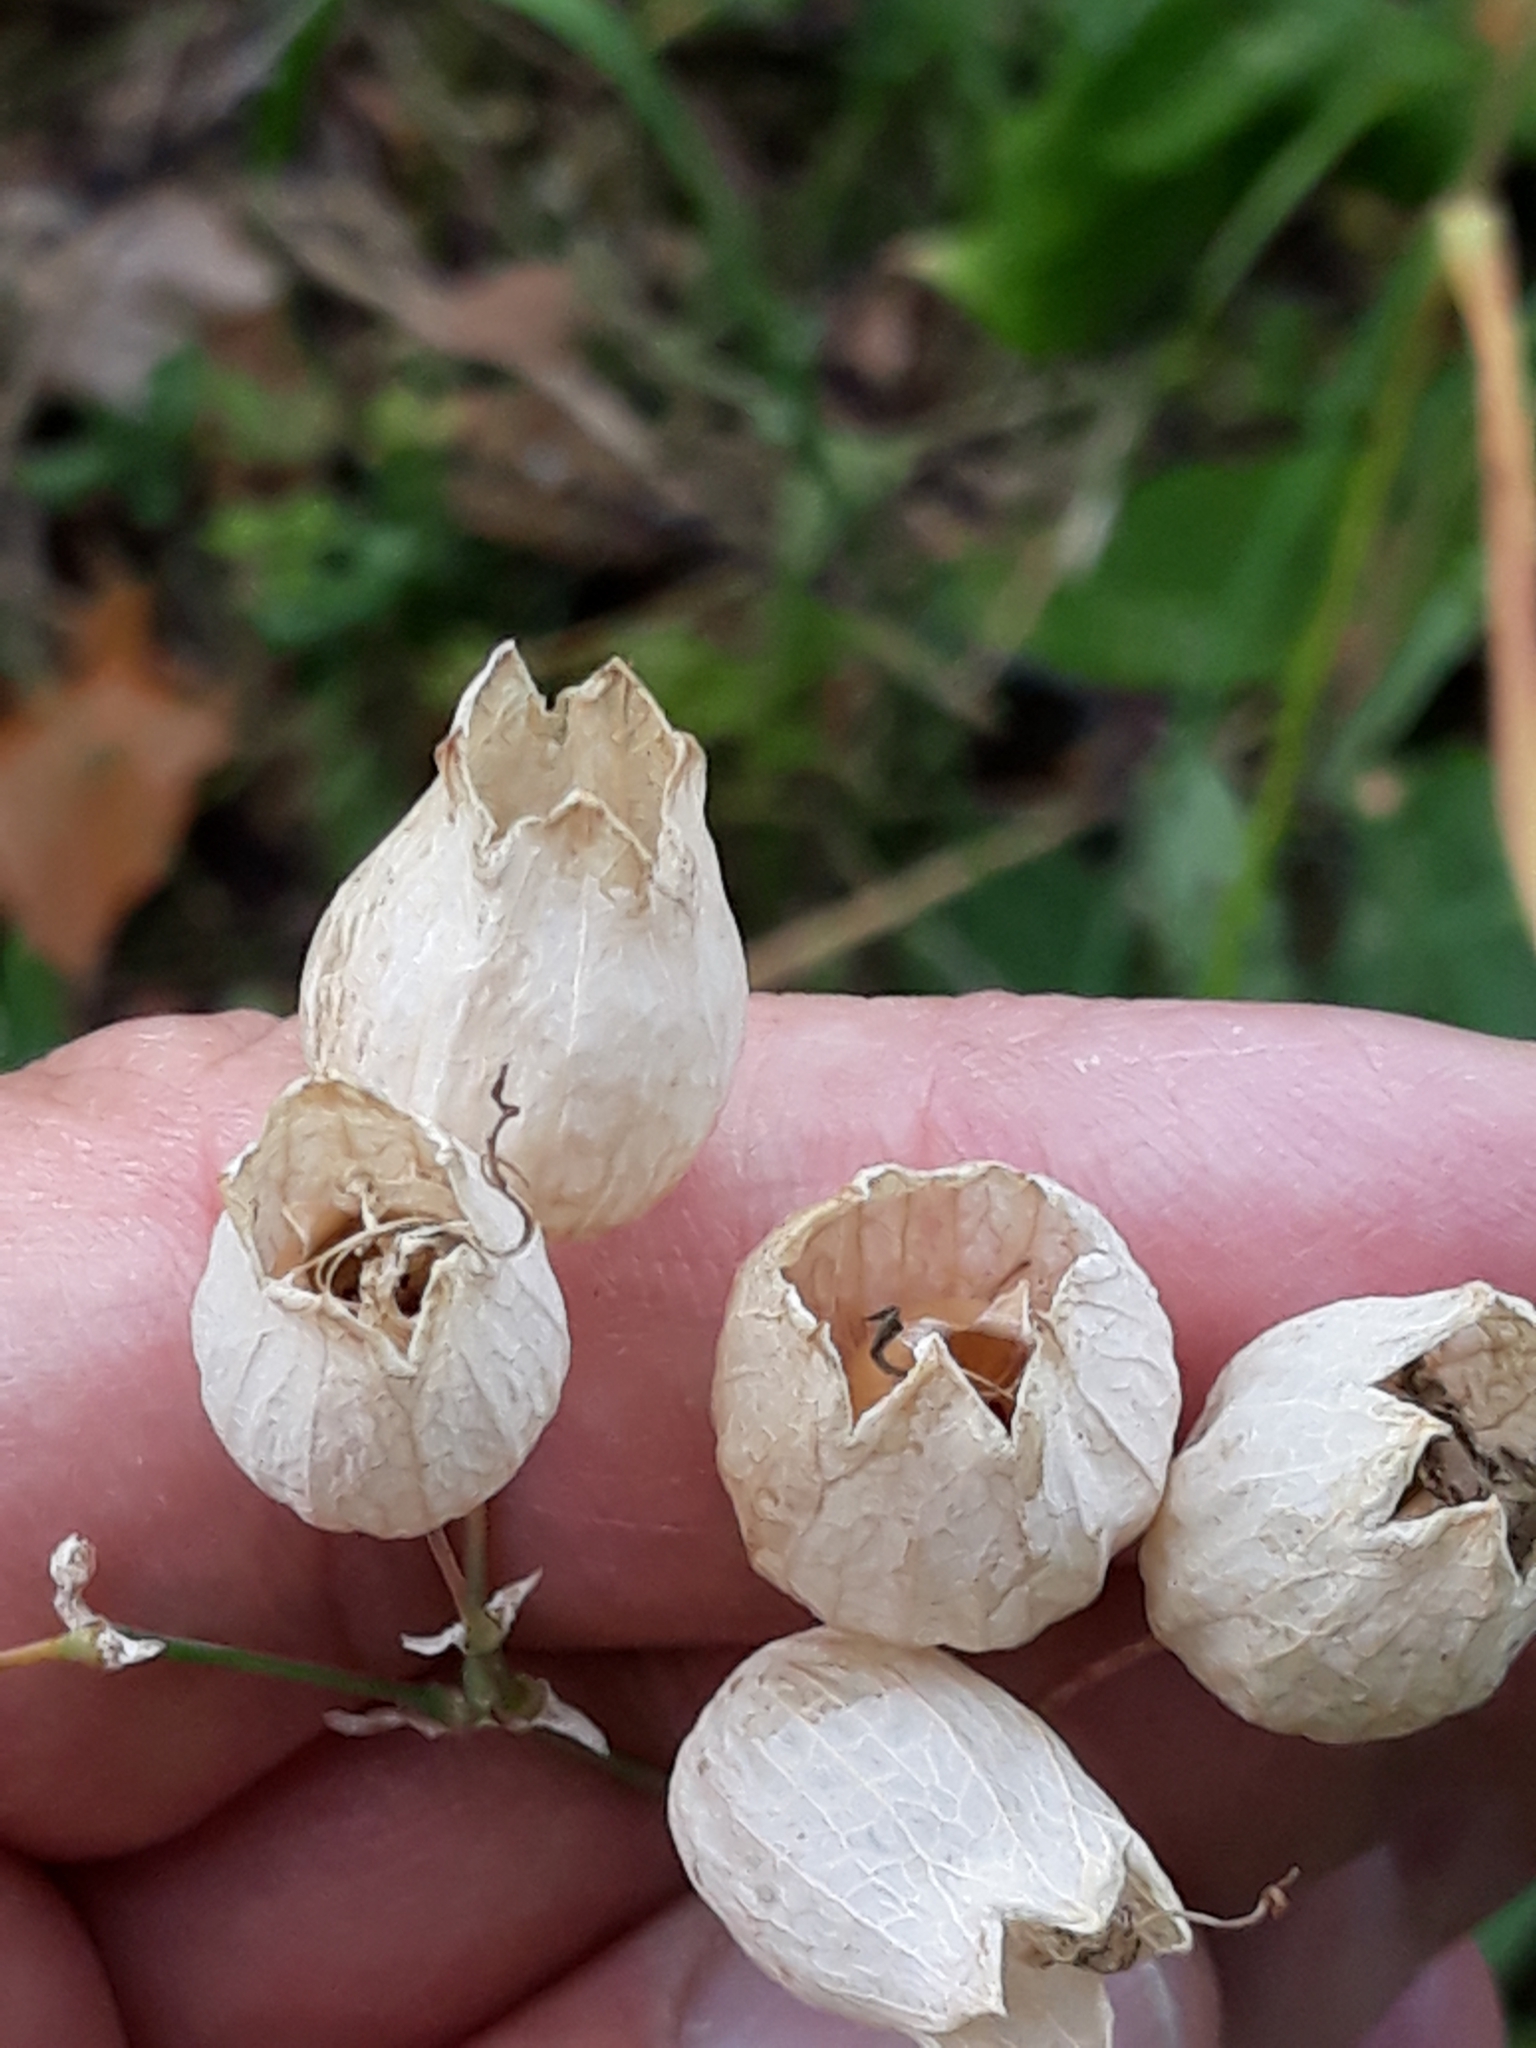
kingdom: Plantae
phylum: Tracheophyta
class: Magnoliopsida
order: Caryophyllales
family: Caryophyllaceae
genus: Silene
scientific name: Silene vulgaris
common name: Bladder campion
